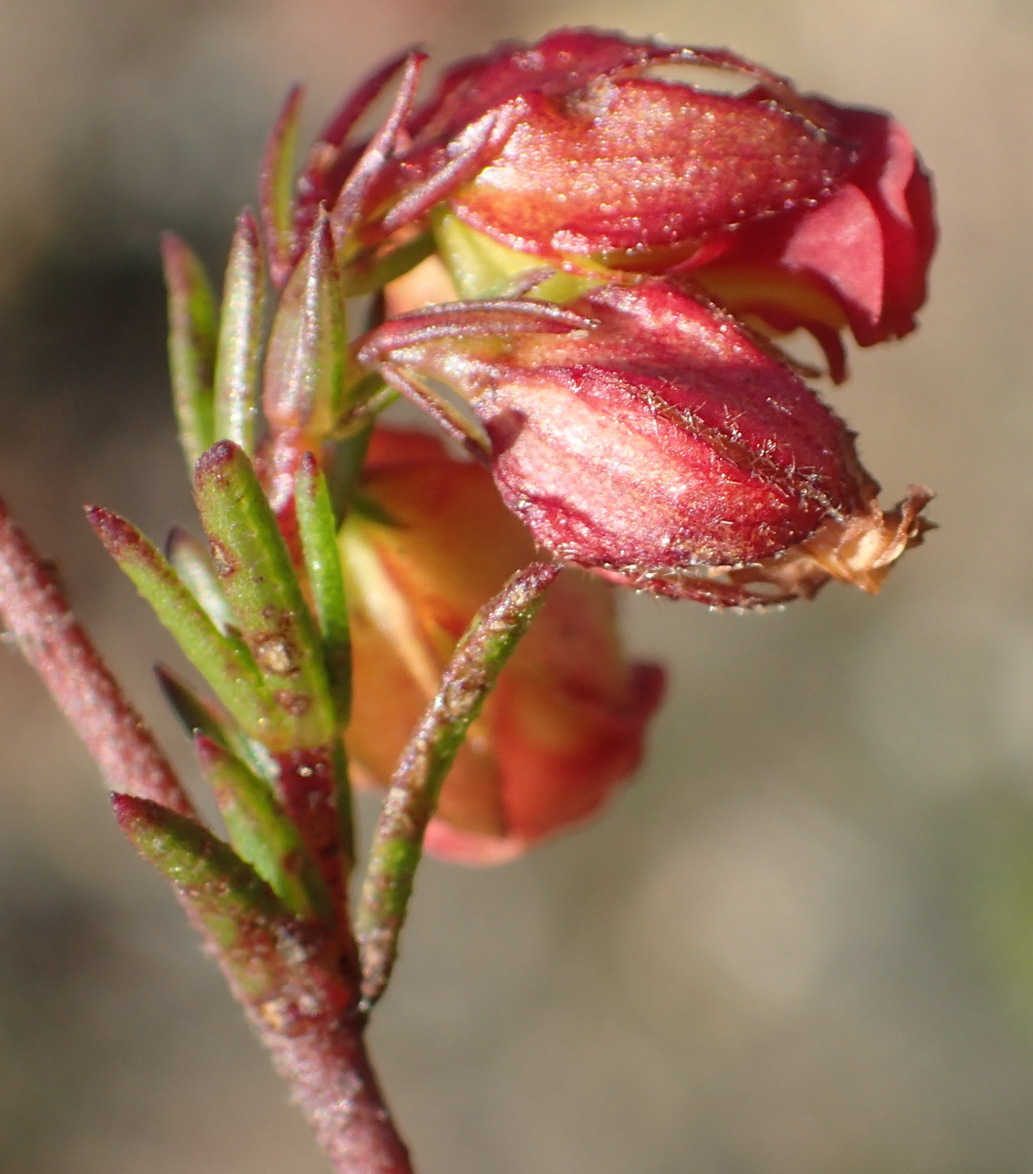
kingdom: Plantae
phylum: Tracheophyta
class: Magnoliopsida
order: Malvales
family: Malvaceae
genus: Hermannia
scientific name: Hermannia angularis
